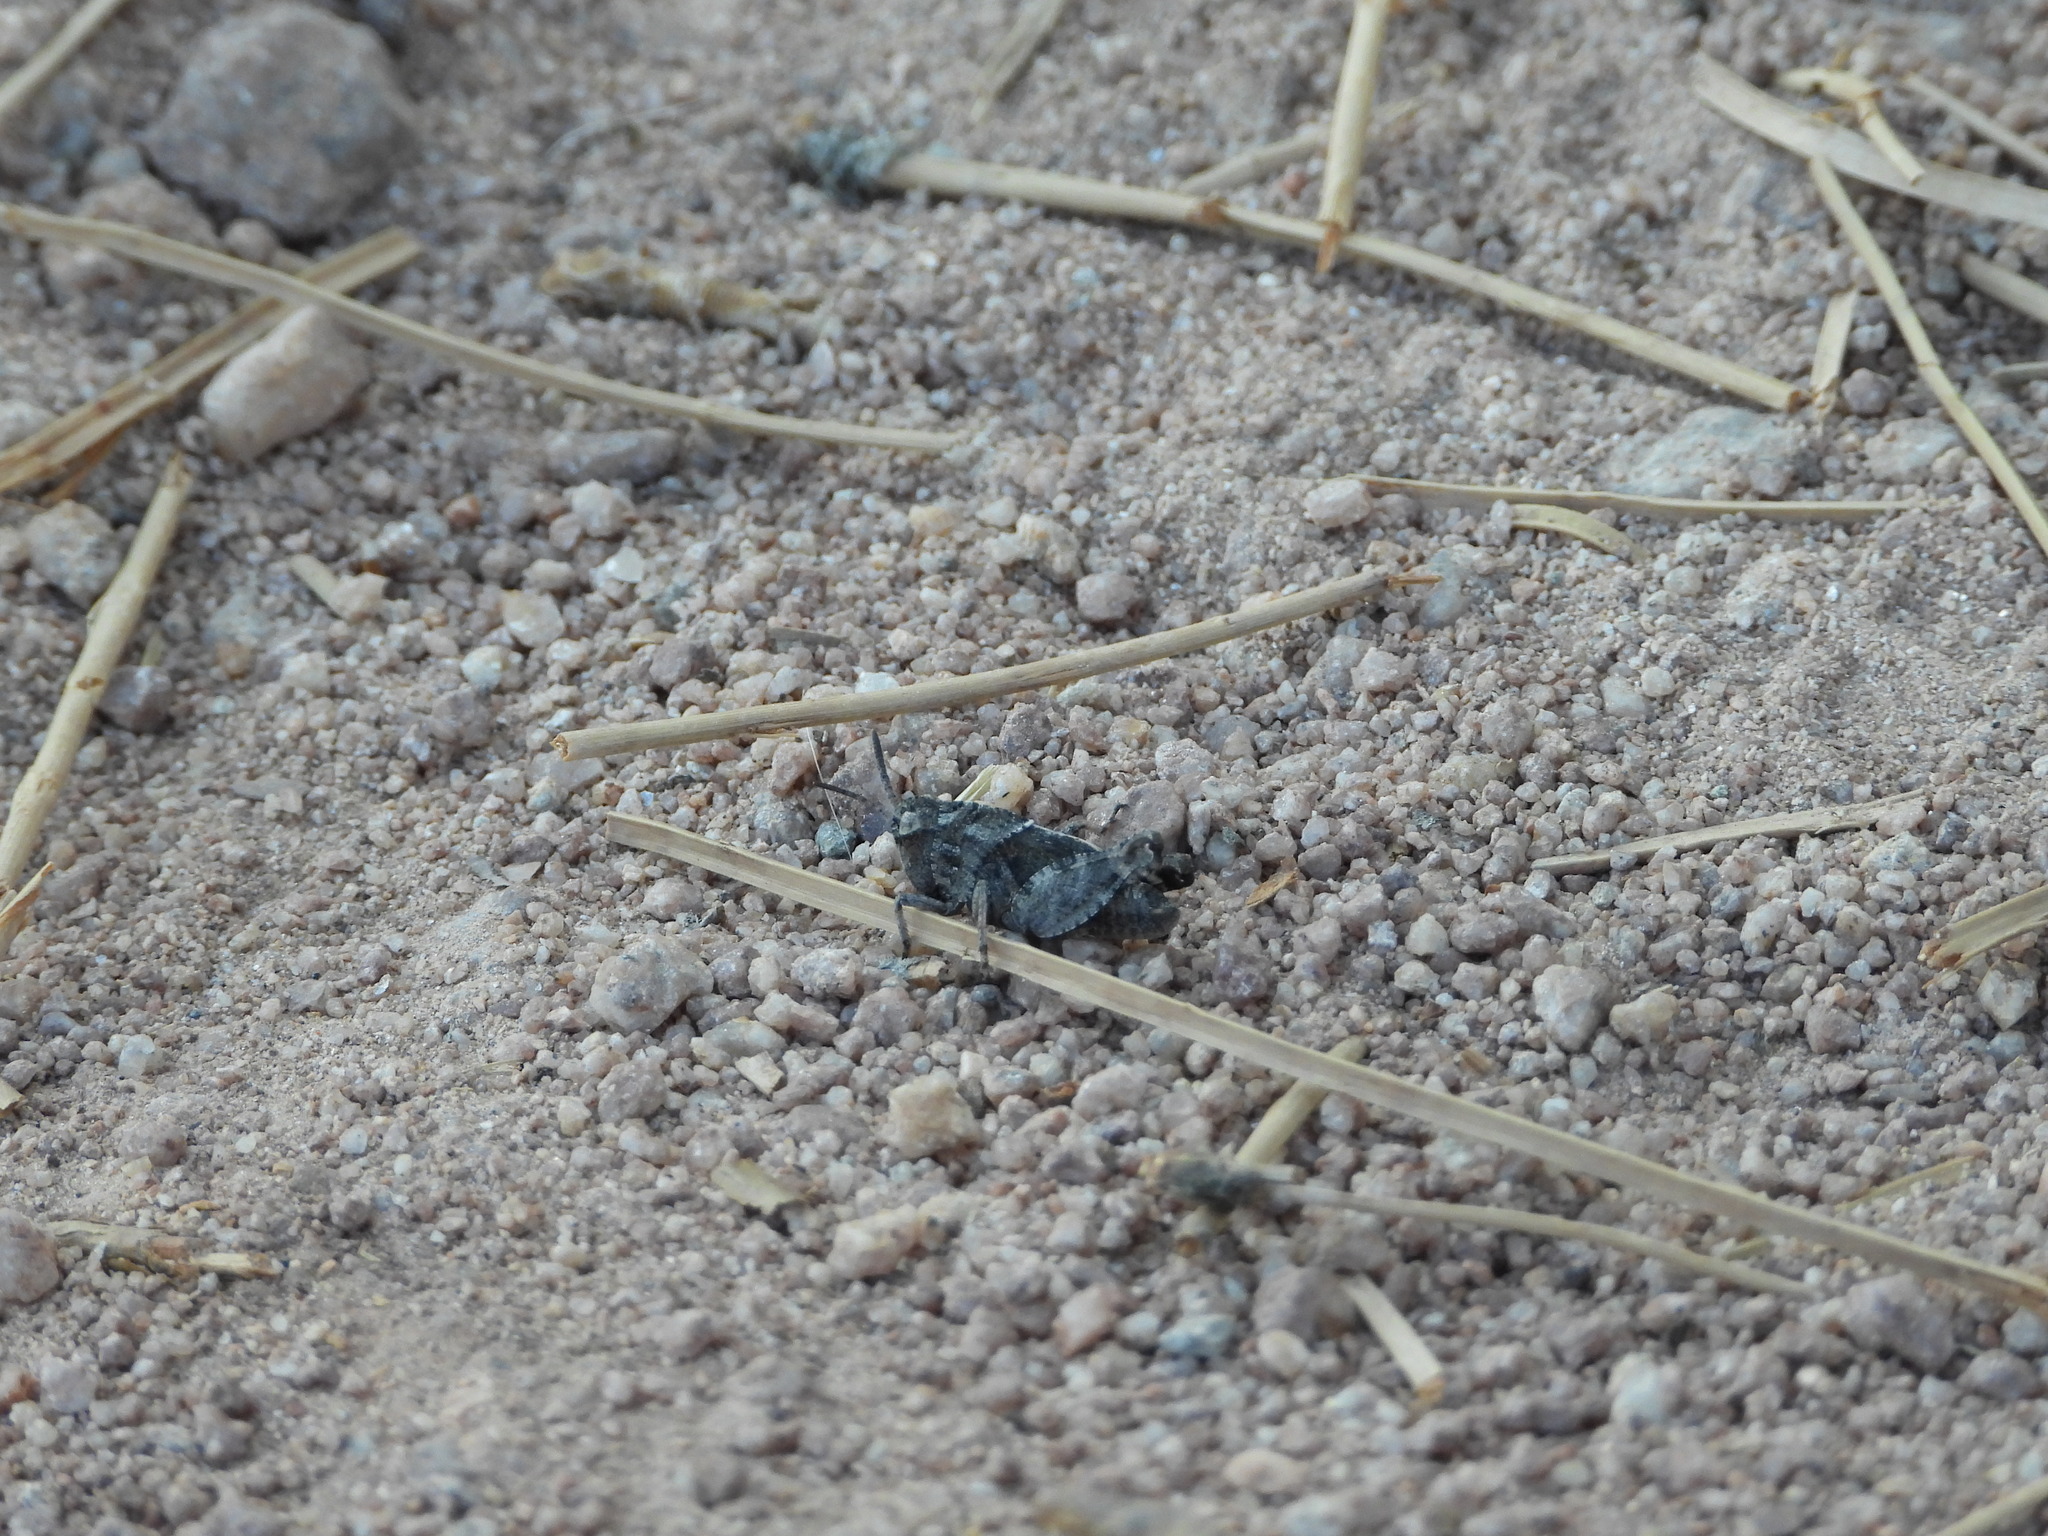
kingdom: Animalia
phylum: Arthropoda
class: Insecta
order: Orthoptera
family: Acrididae
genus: Arphia
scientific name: Arphia conspersa
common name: Speckle-winged rangeland grasshopper
